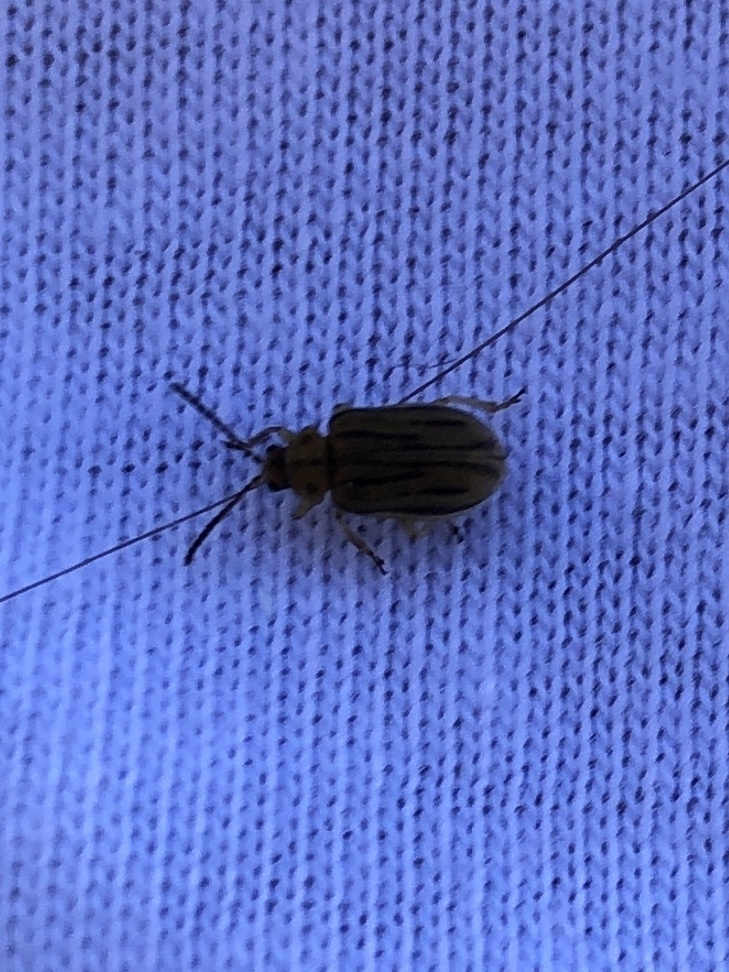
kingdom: Animalia
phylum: Arthropoda
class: Insecta
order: Coleoptera
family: Chrysomelidae
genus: Ophraella
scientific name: Ophraella communa
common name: Ragweed leaf beetle
